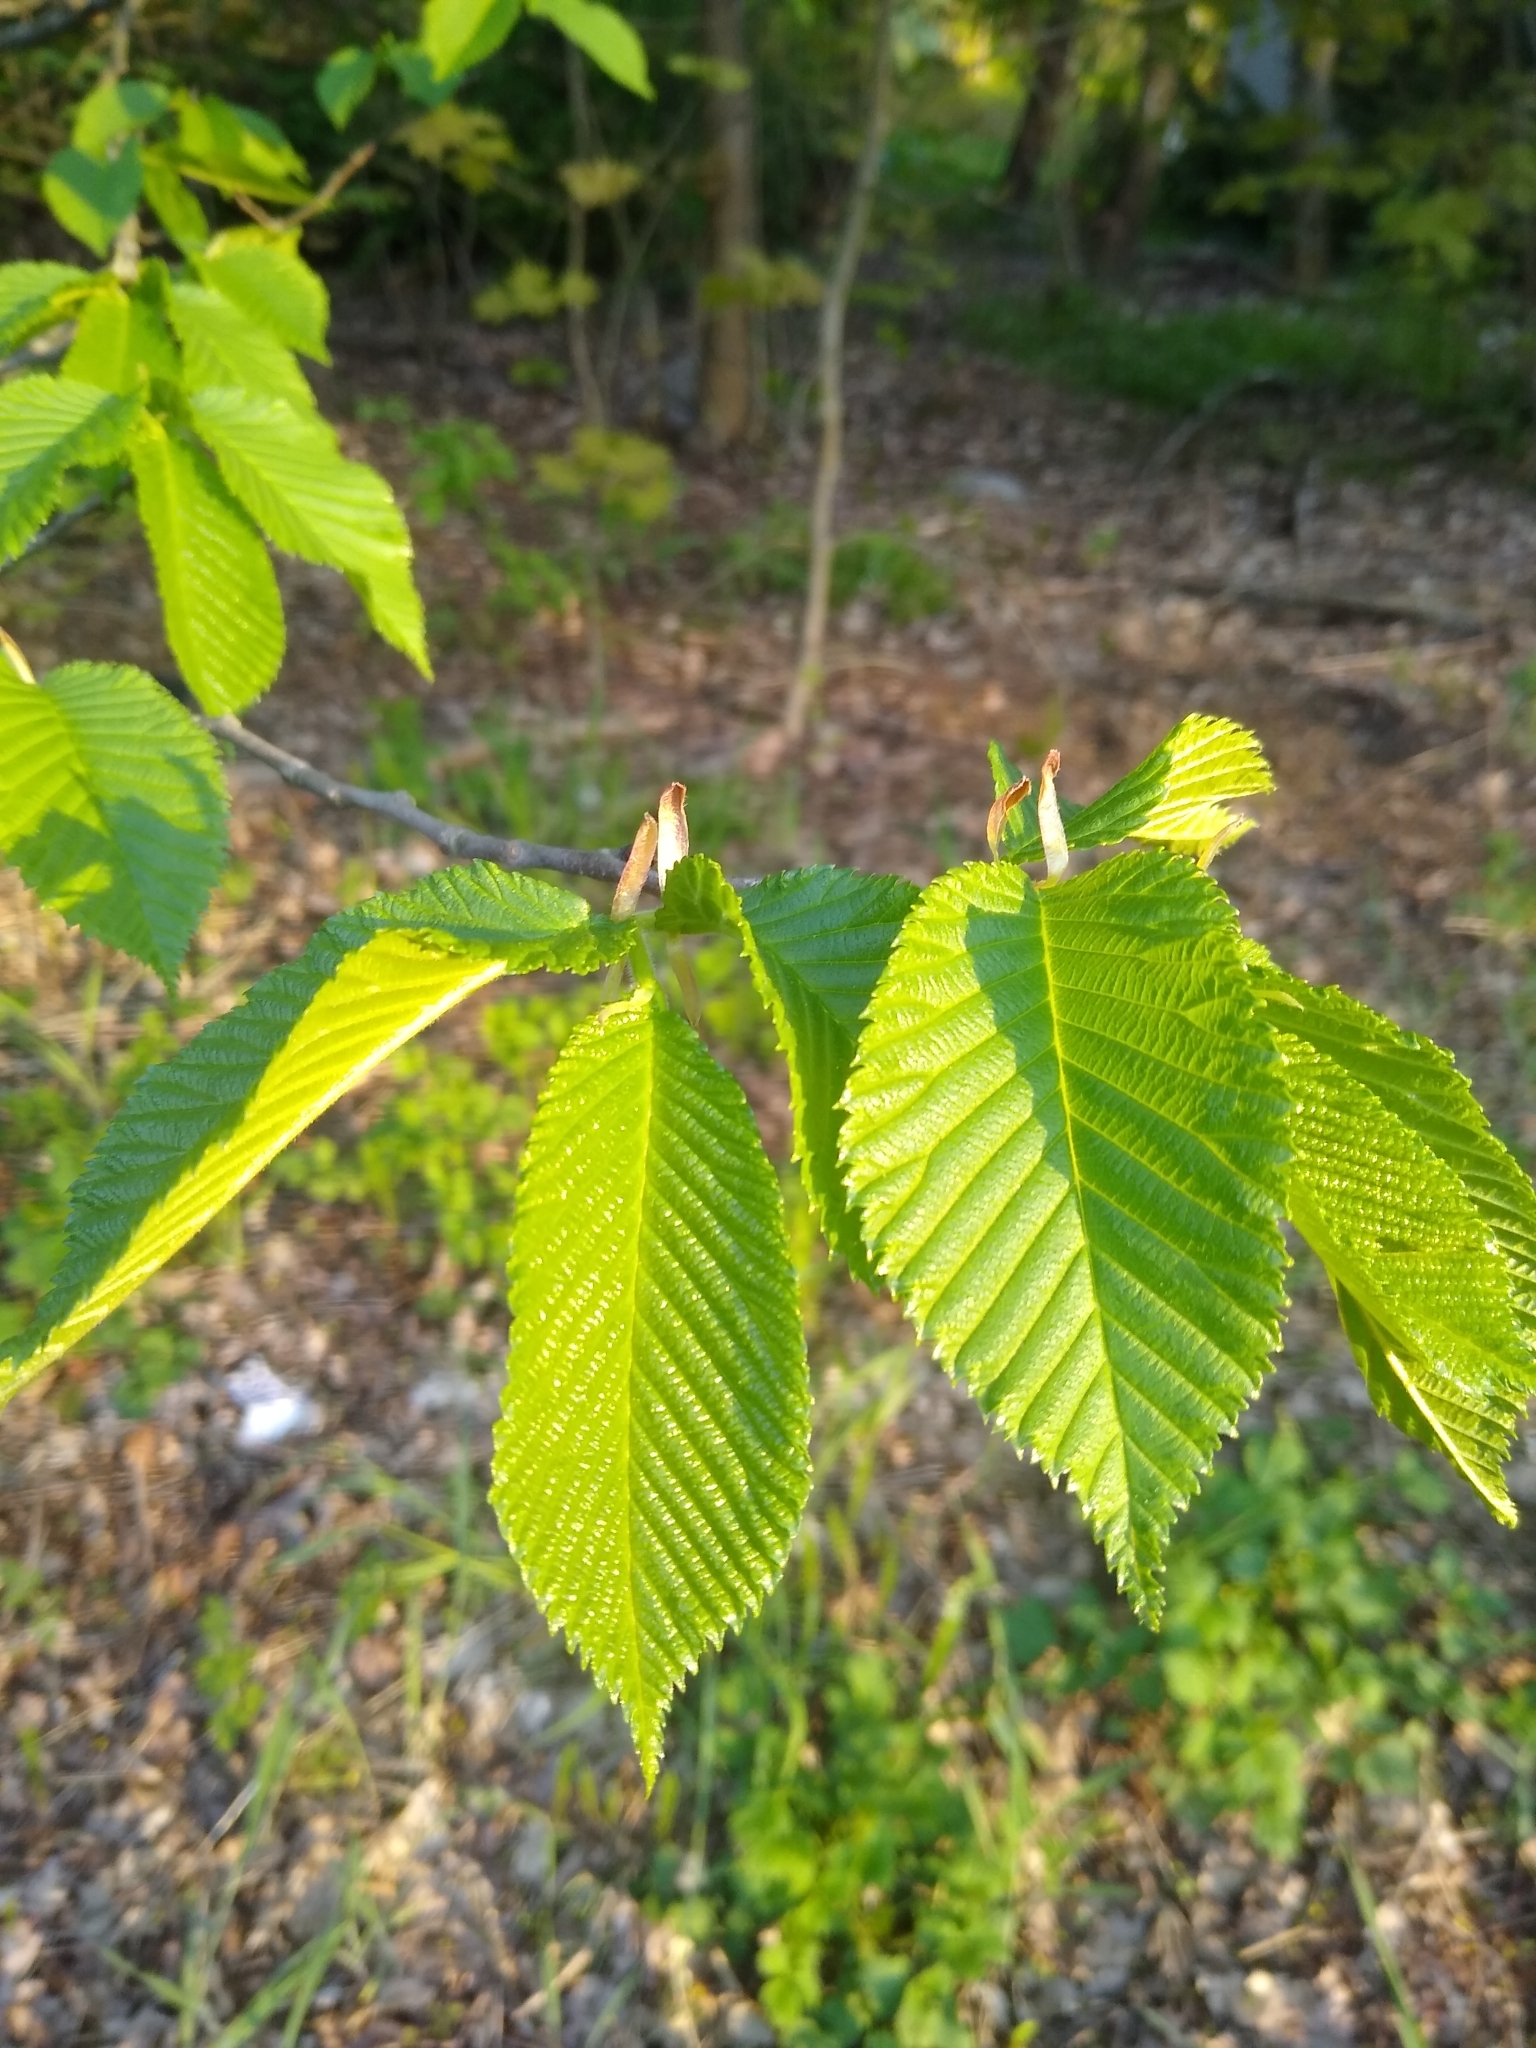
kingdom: Plantae
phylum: Tracheophyta
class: Magnoliopsida
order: Rosales
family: Ulmaceae
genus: Ulmus
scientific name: Ulmus glabra
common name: Wych elm
